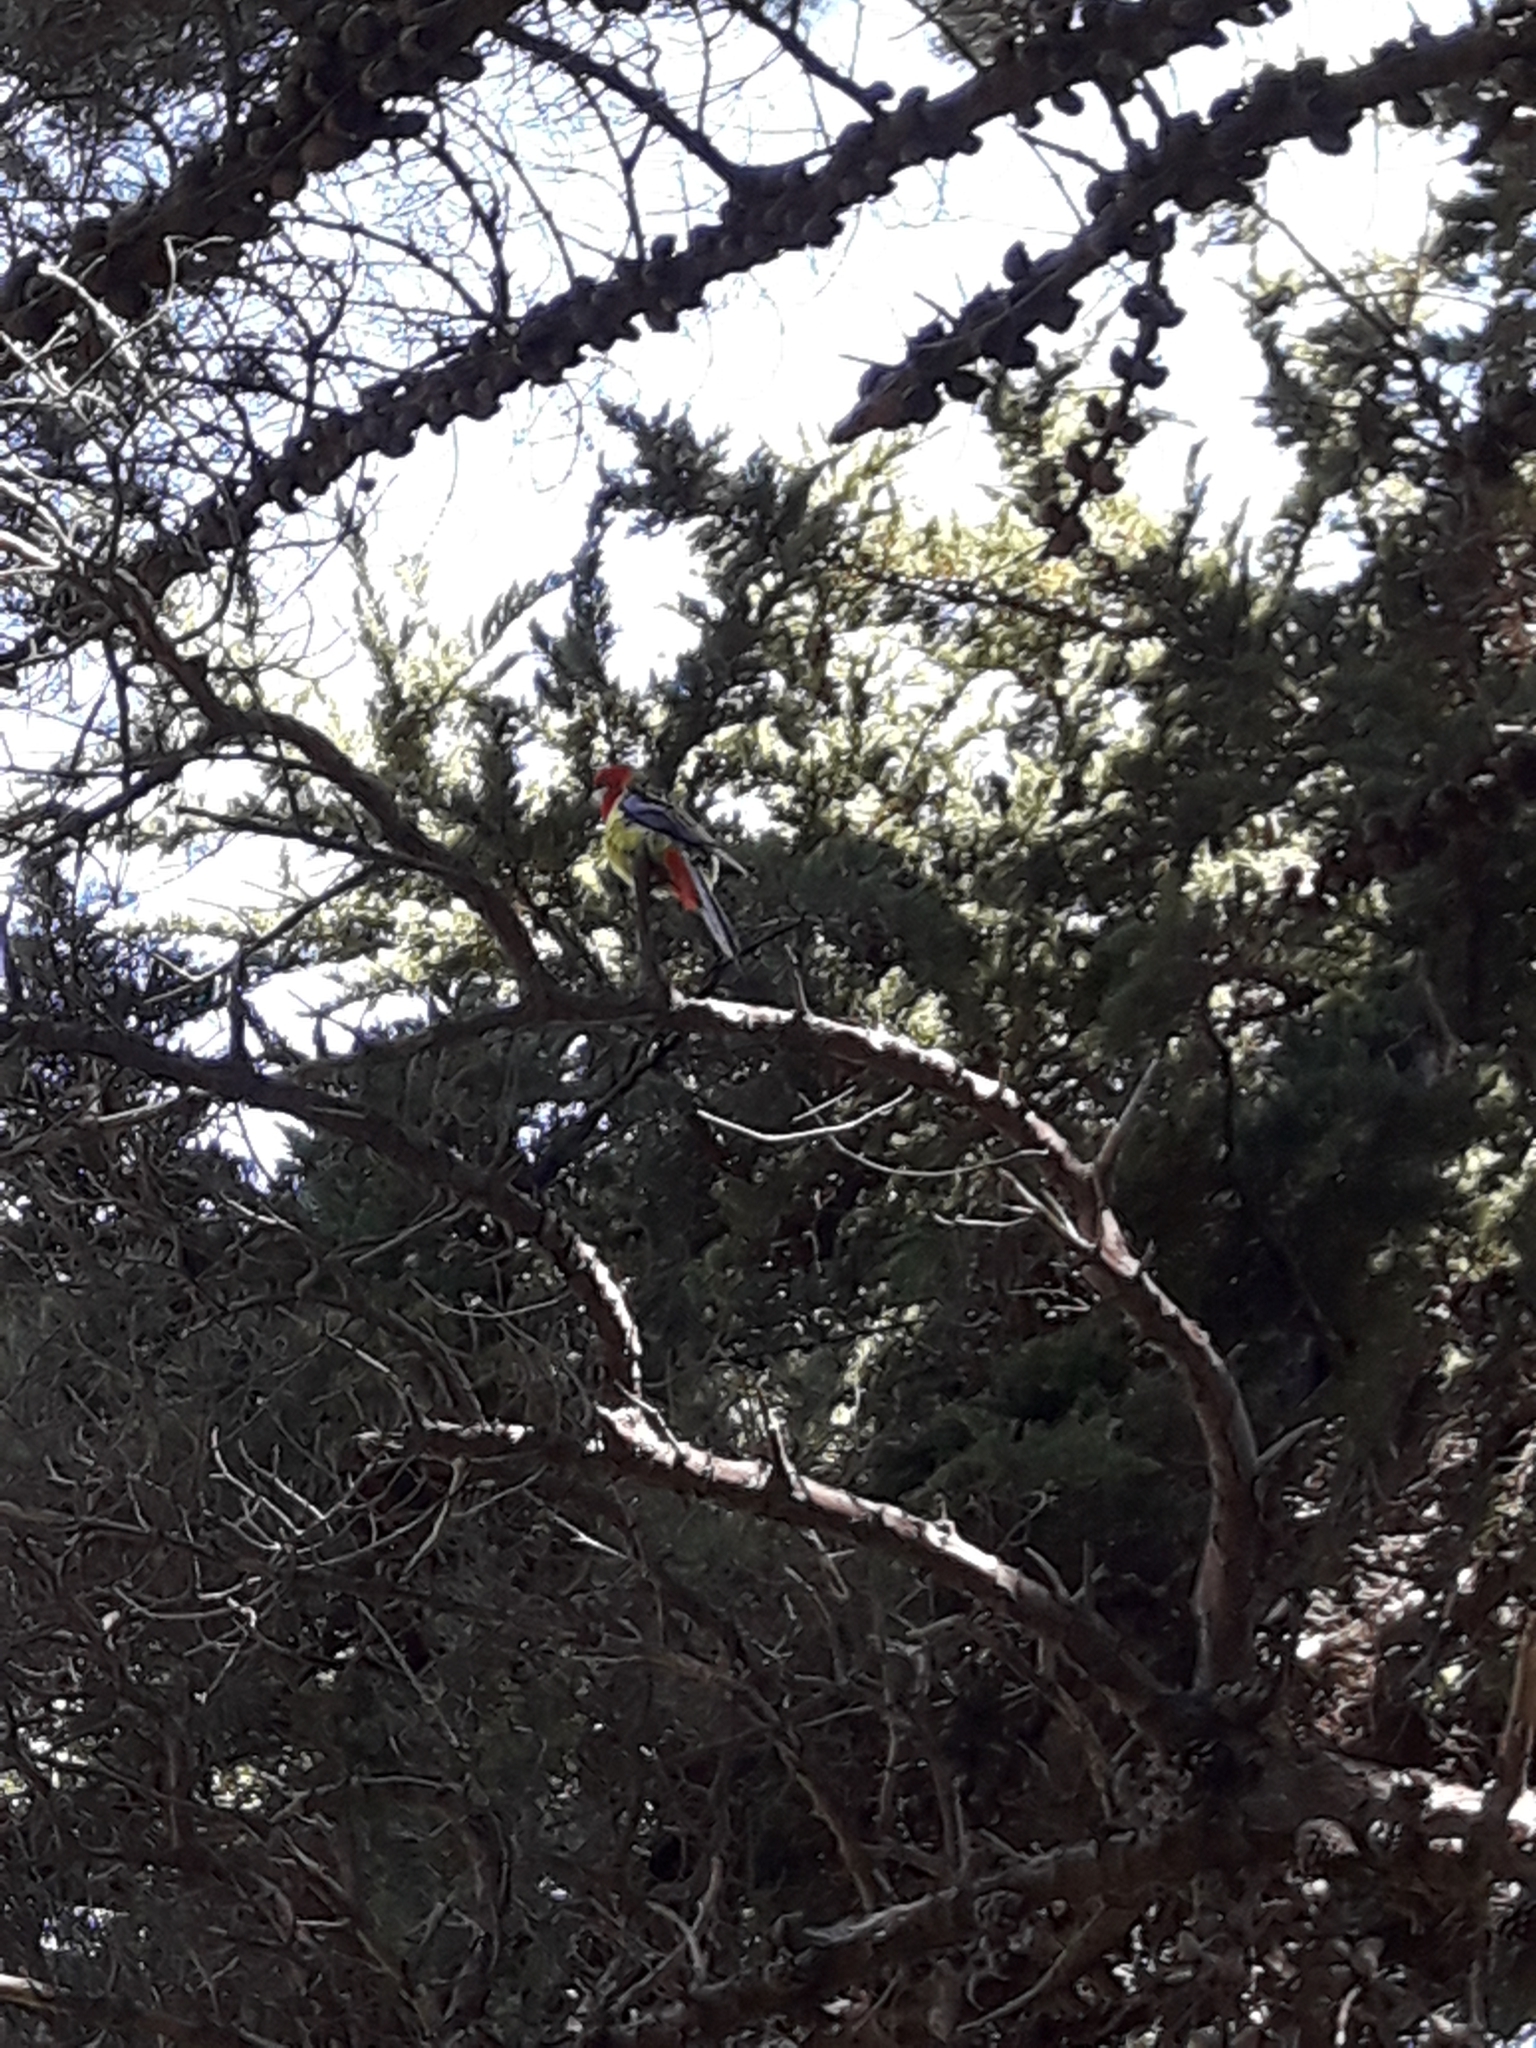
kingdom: Animalia
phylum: Chordata
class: Aves
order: Psittaciformes
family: Psittacidae
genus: Platycercus
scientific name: Platycercus eximius
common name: Eastern rosella
